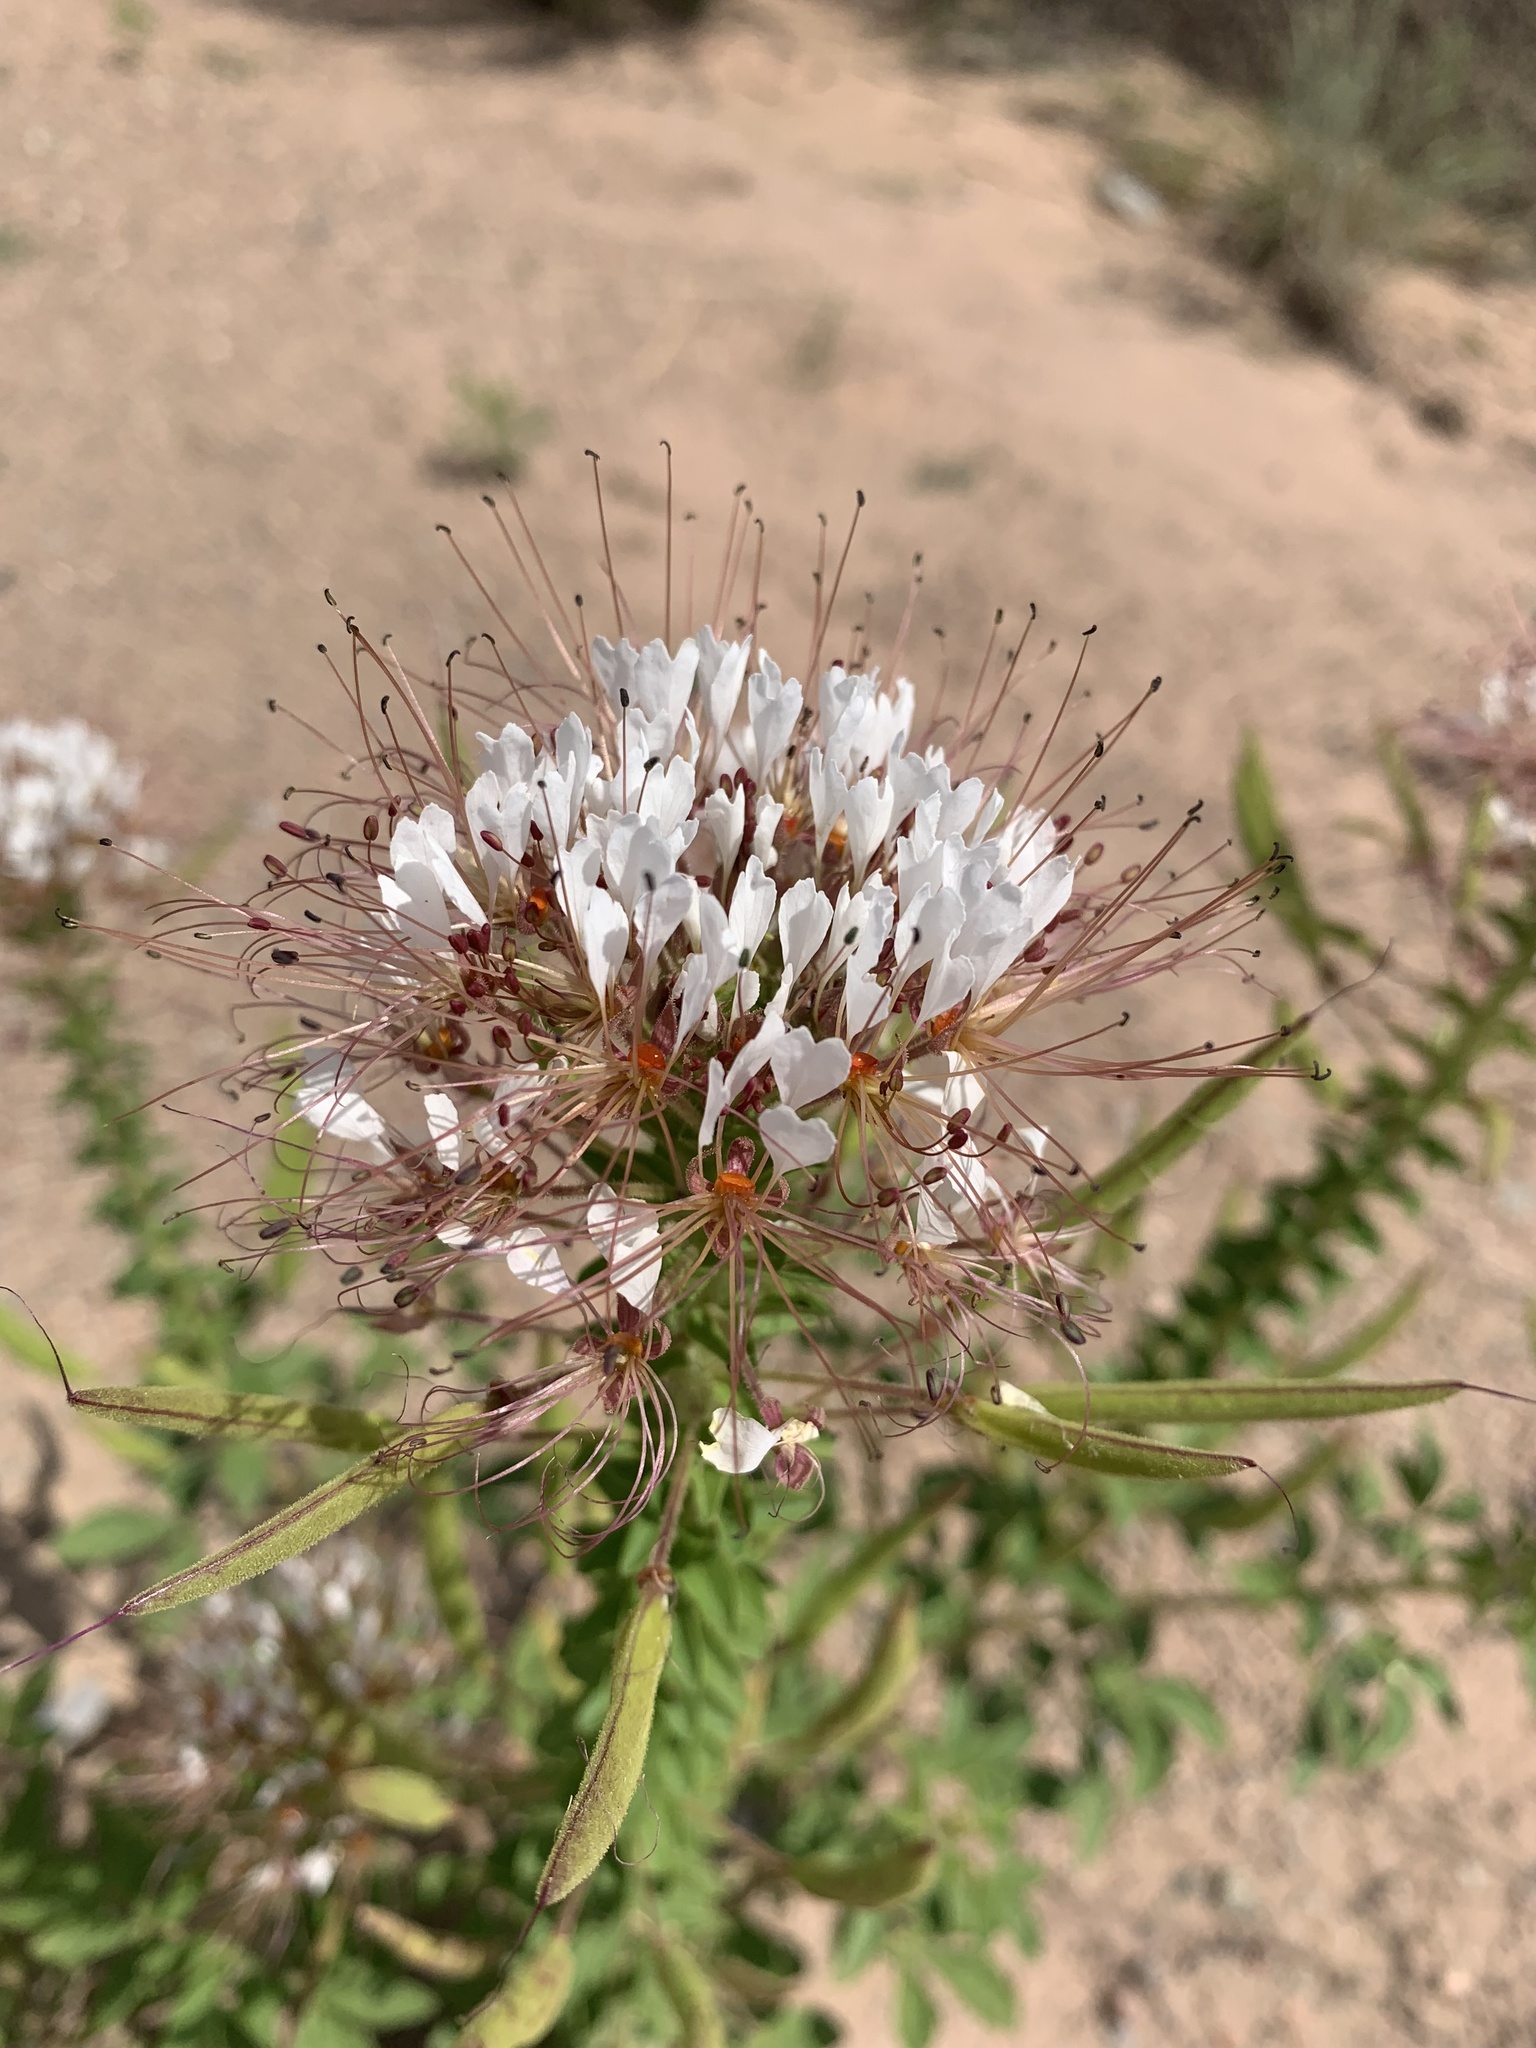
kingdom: Plantae
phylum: Tracheophyta
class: Magnoliopsida
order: Brassicales
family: Cleomaceae
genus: Polanisia
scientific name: Polanisia dodecandra
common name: Clammyweed
